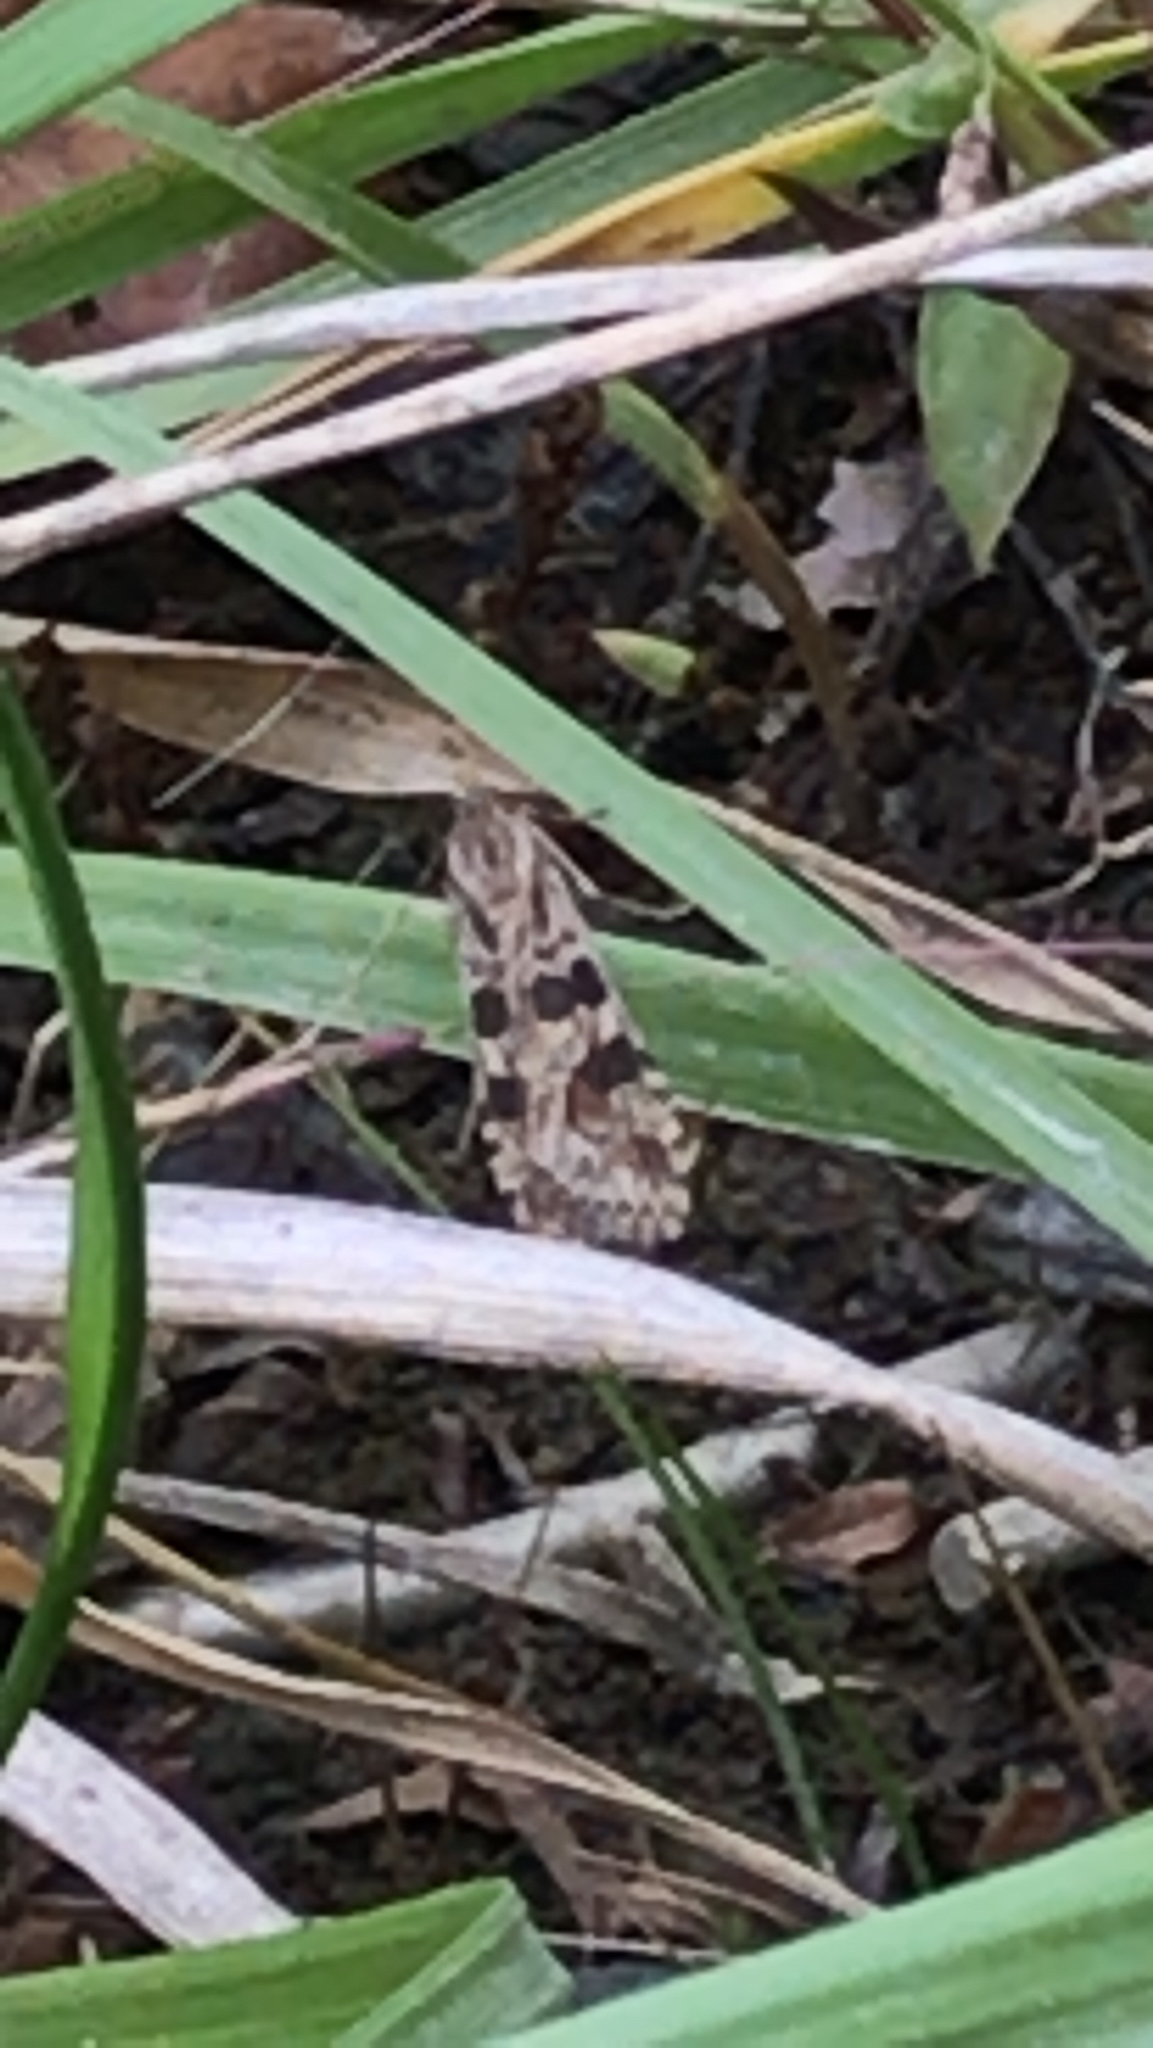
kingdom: Animalia
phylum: Arthropoda
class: Insecta
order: Lepidoptera
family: Crambidae
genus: Nomophila
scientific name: Nomophila nearctica
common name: American rush veneer
